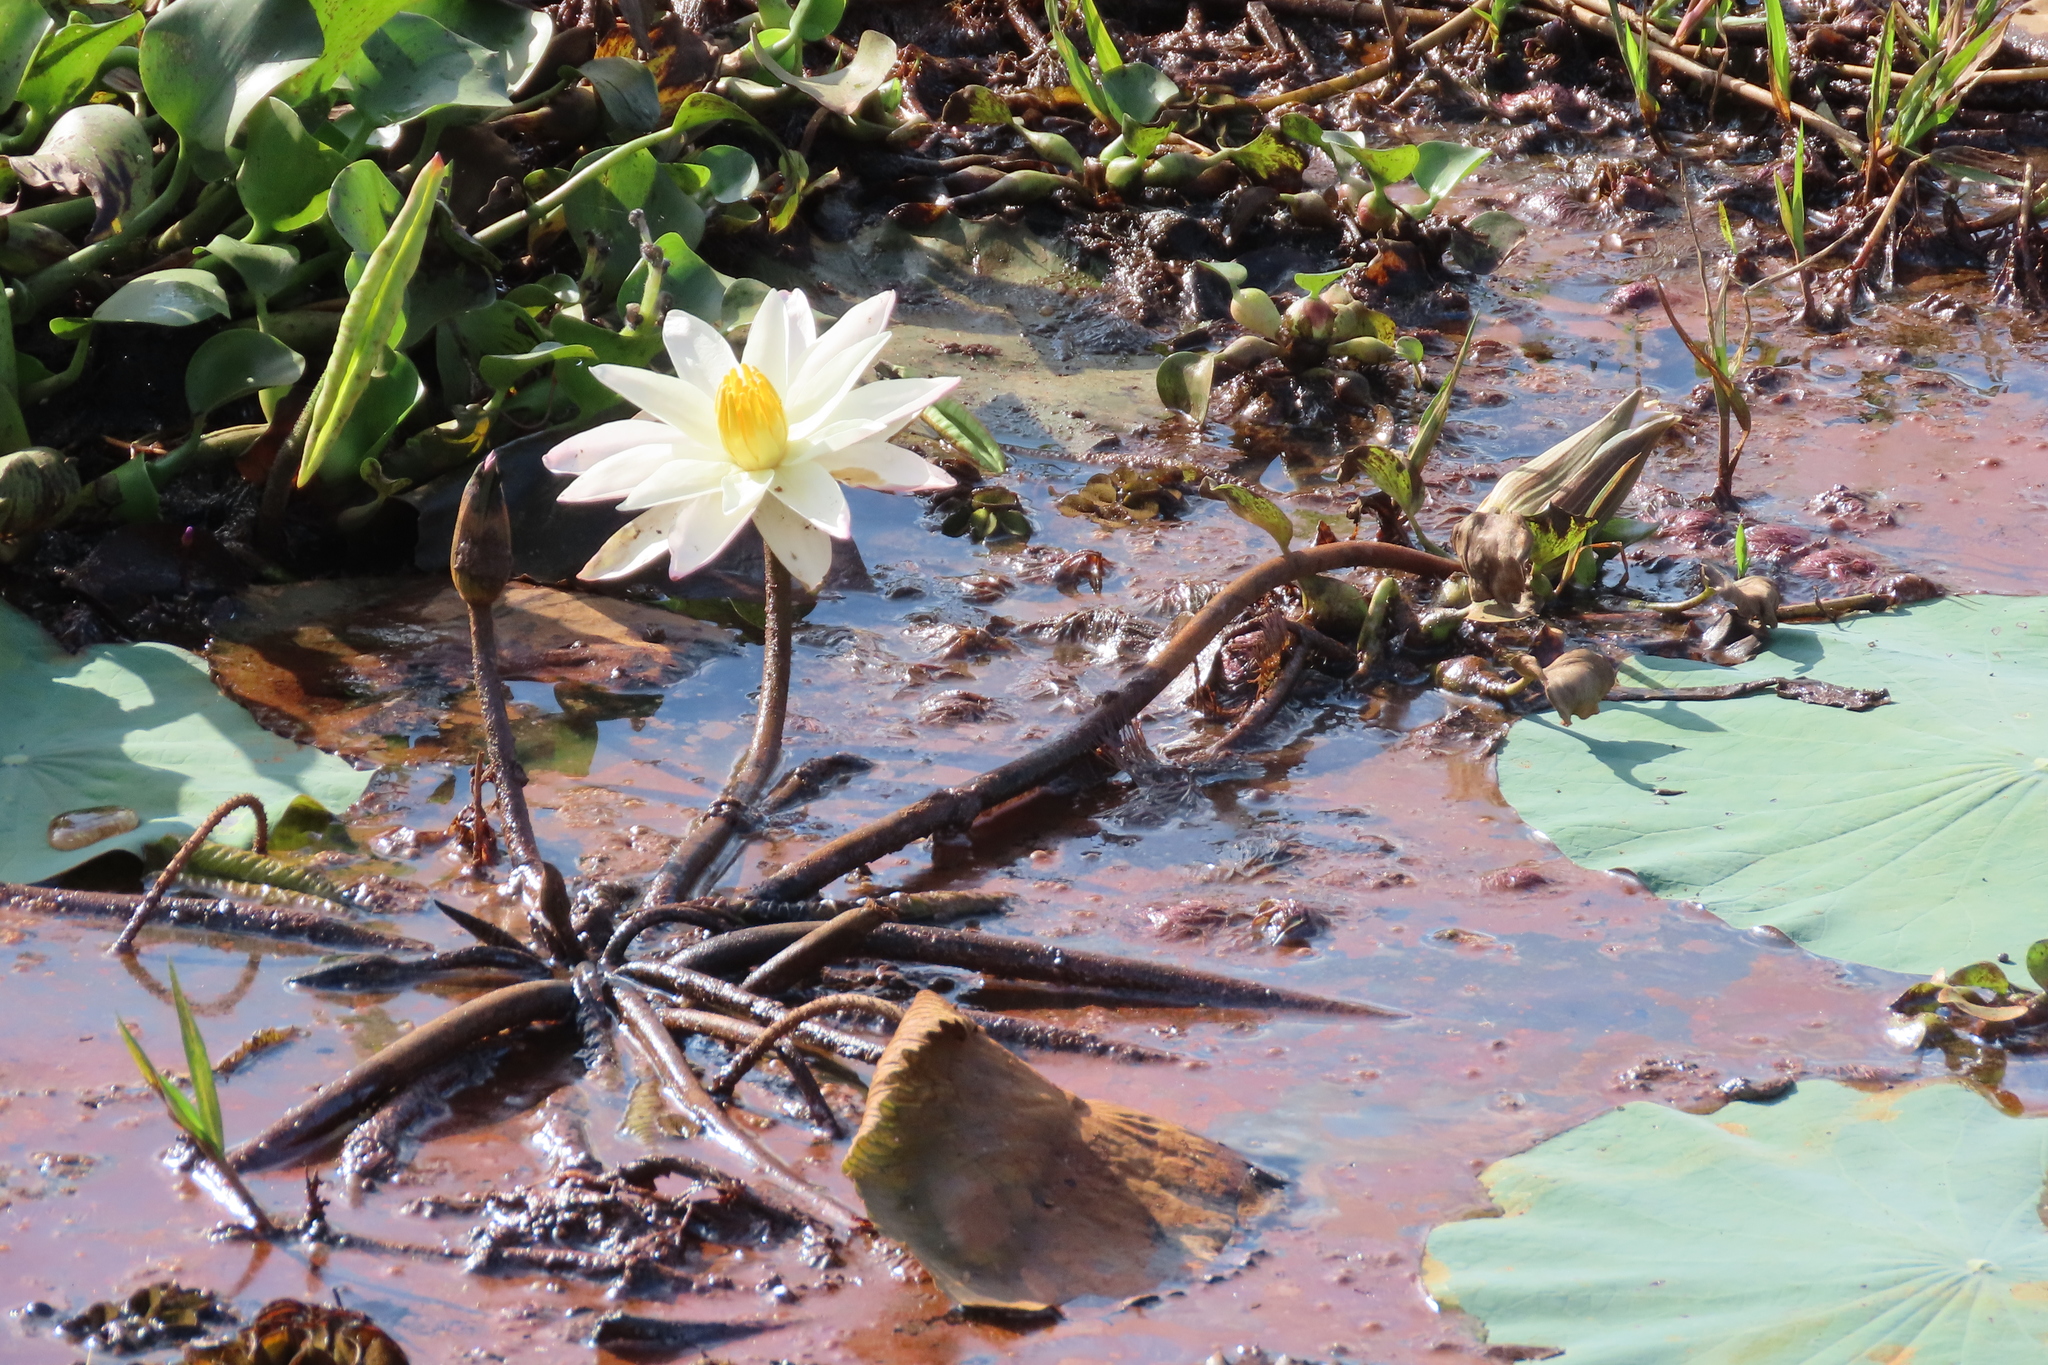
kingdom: Plantae
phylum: Tracheophyta
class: Liliopsida
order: Commelinales
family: Pontederiaceae
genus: Pontederia
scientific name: Pontederia crassipes
